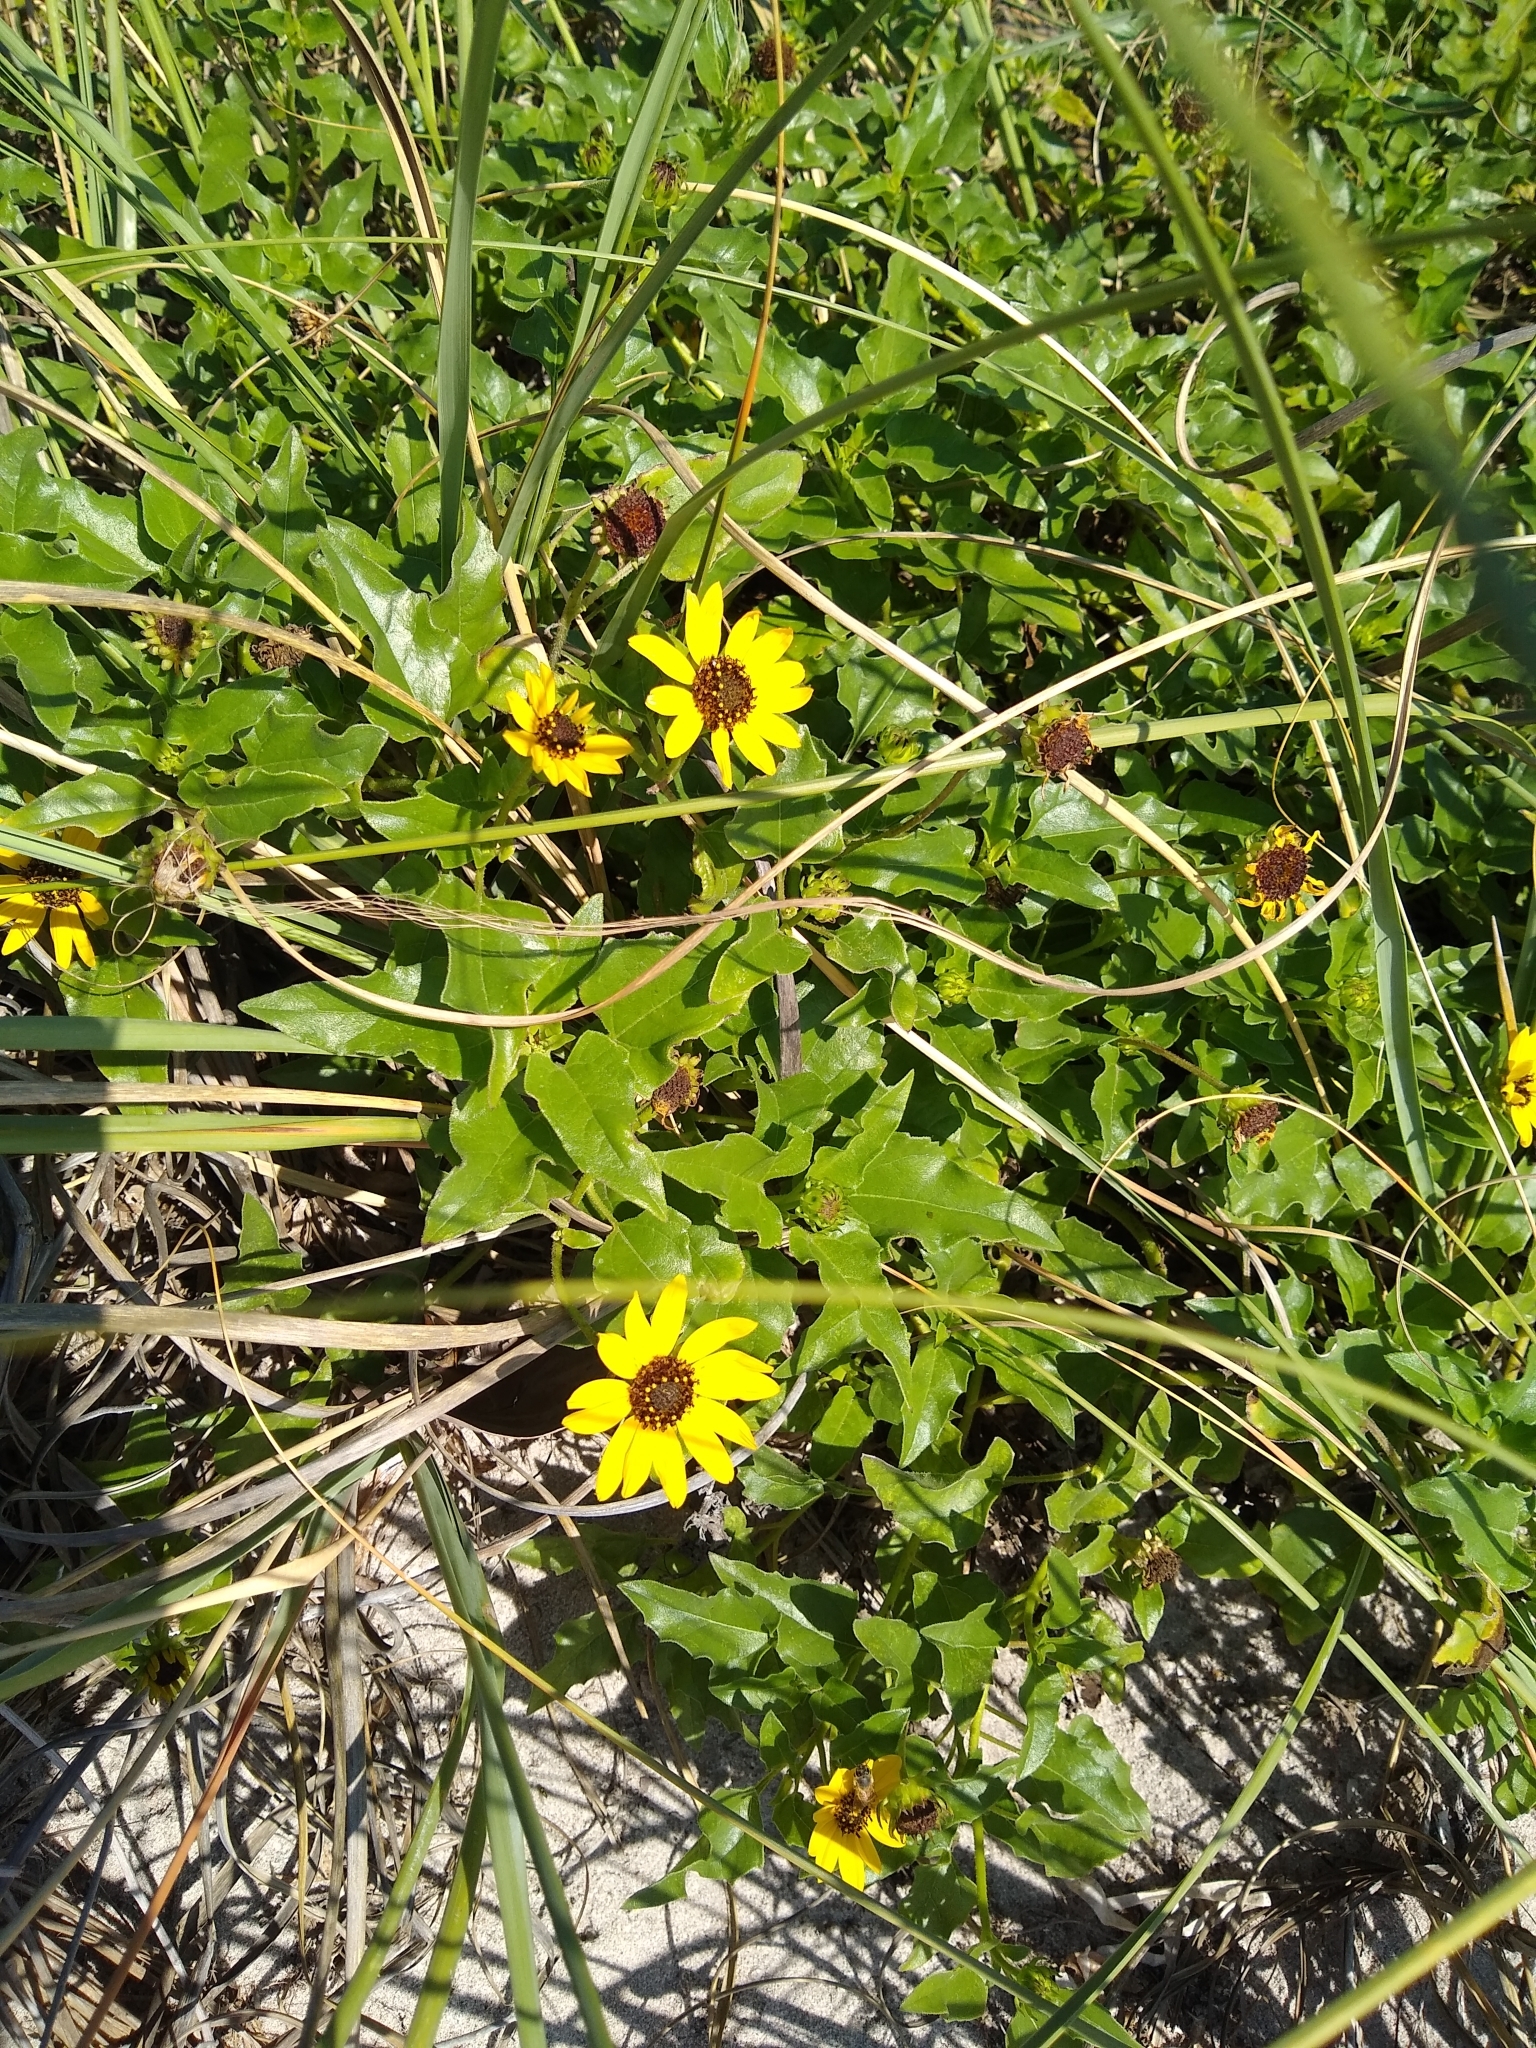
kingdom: Plantae
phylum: Tracheophyta
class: Magnoliopsida
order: Asterales
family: Asteraceae
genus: Helianthus
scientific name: Helianthus debilis
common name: Weak sunflower
